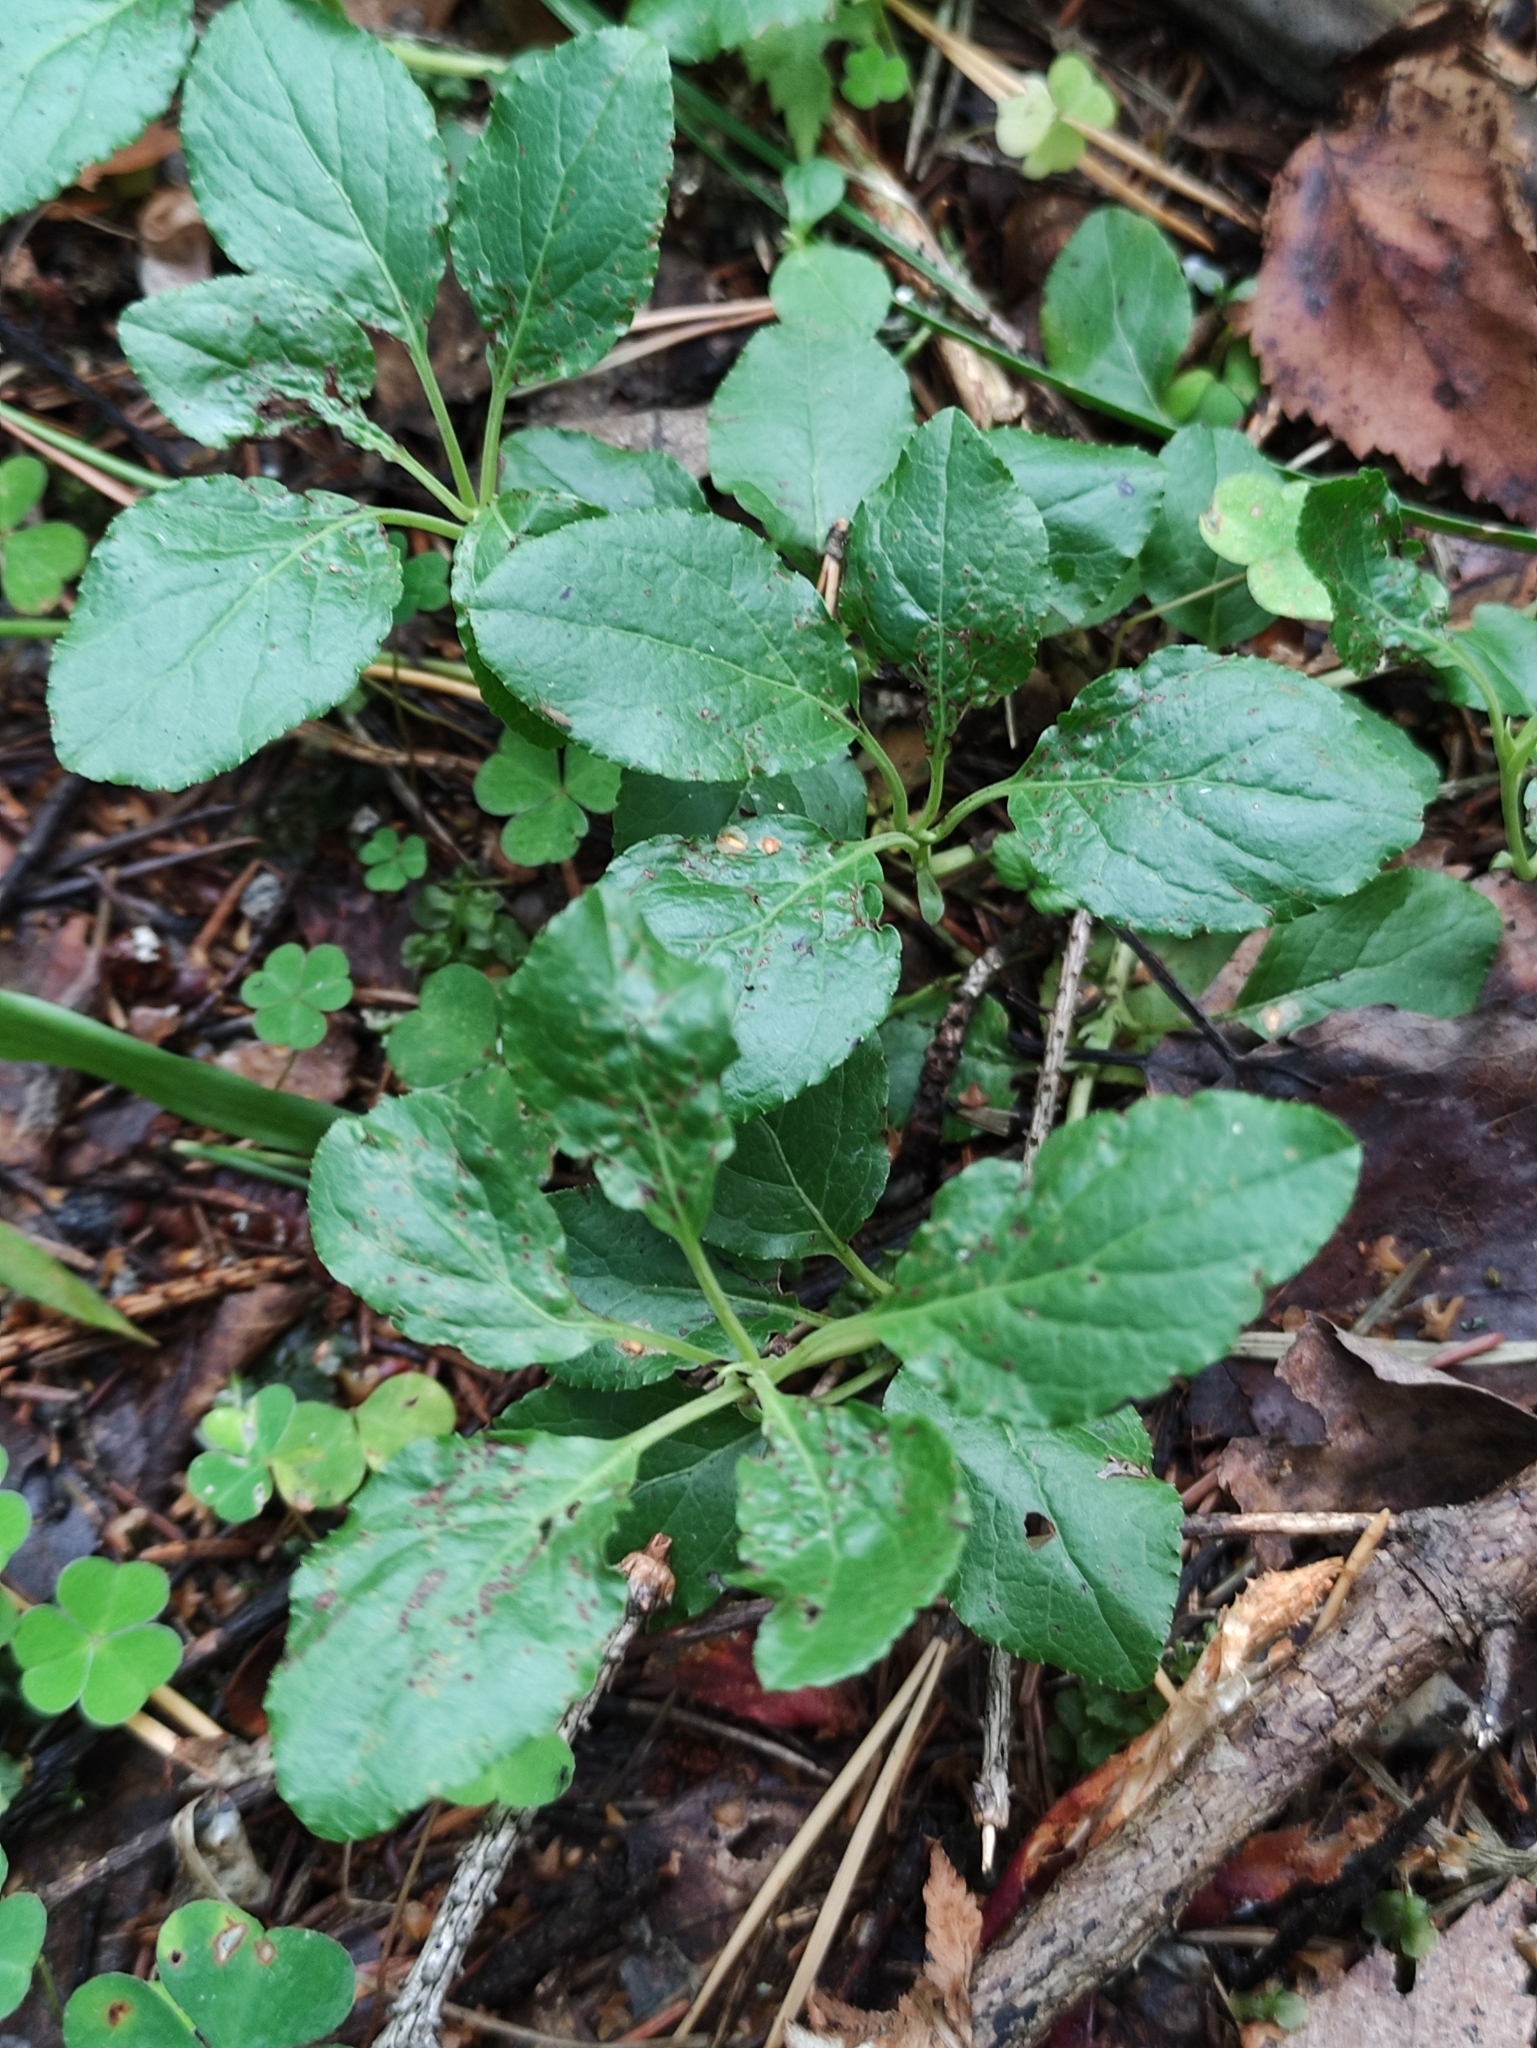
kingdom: Plantae
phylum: Tracheophyta
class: Magnoliopsida
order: Ericales
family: Ericaceae
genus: Orthilia
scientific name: Orthilia secunda
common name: One-sided orthilia
